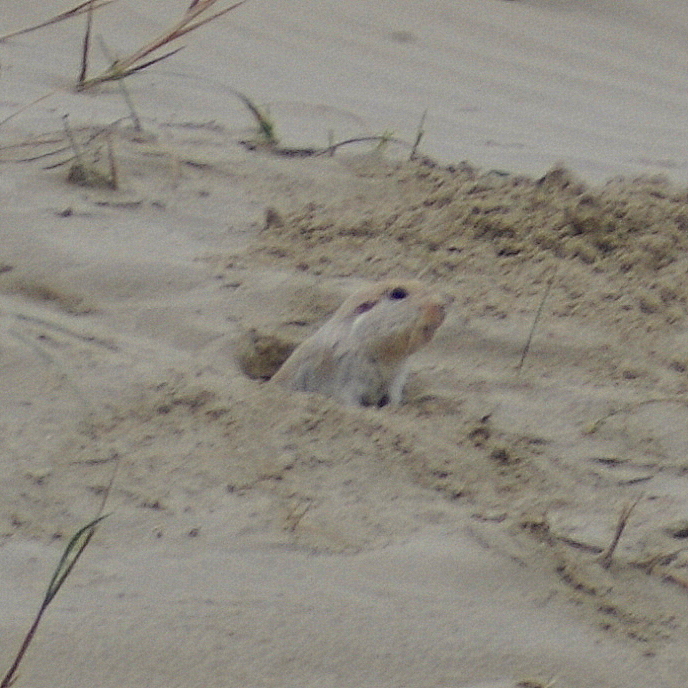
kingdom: Animalia
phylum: Chordata
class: Mammalia
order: Rodentia
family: Ctenomyidae
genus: Ctenomys
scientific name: Ctenomys flamarioni
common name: Tuco-tuco of the dunes
